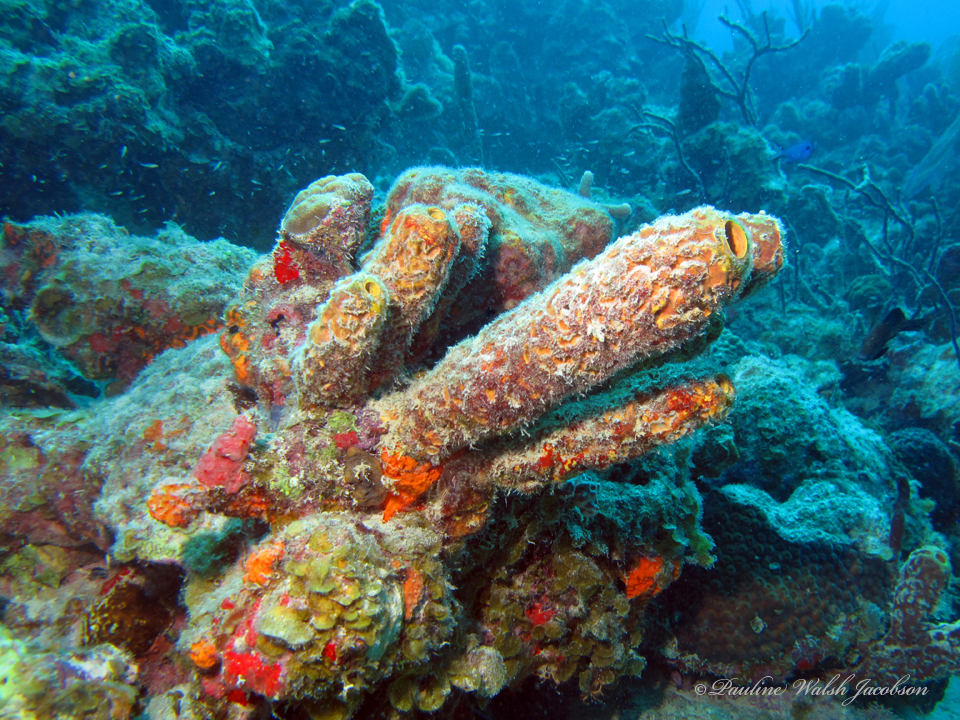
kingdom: Animalia
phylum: Porifera
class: Demospongiae
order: Verongiida
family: Aplysinidae
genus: Aplysina
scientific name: Aplysina lacunosa
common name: Convoluted barrel sponge
